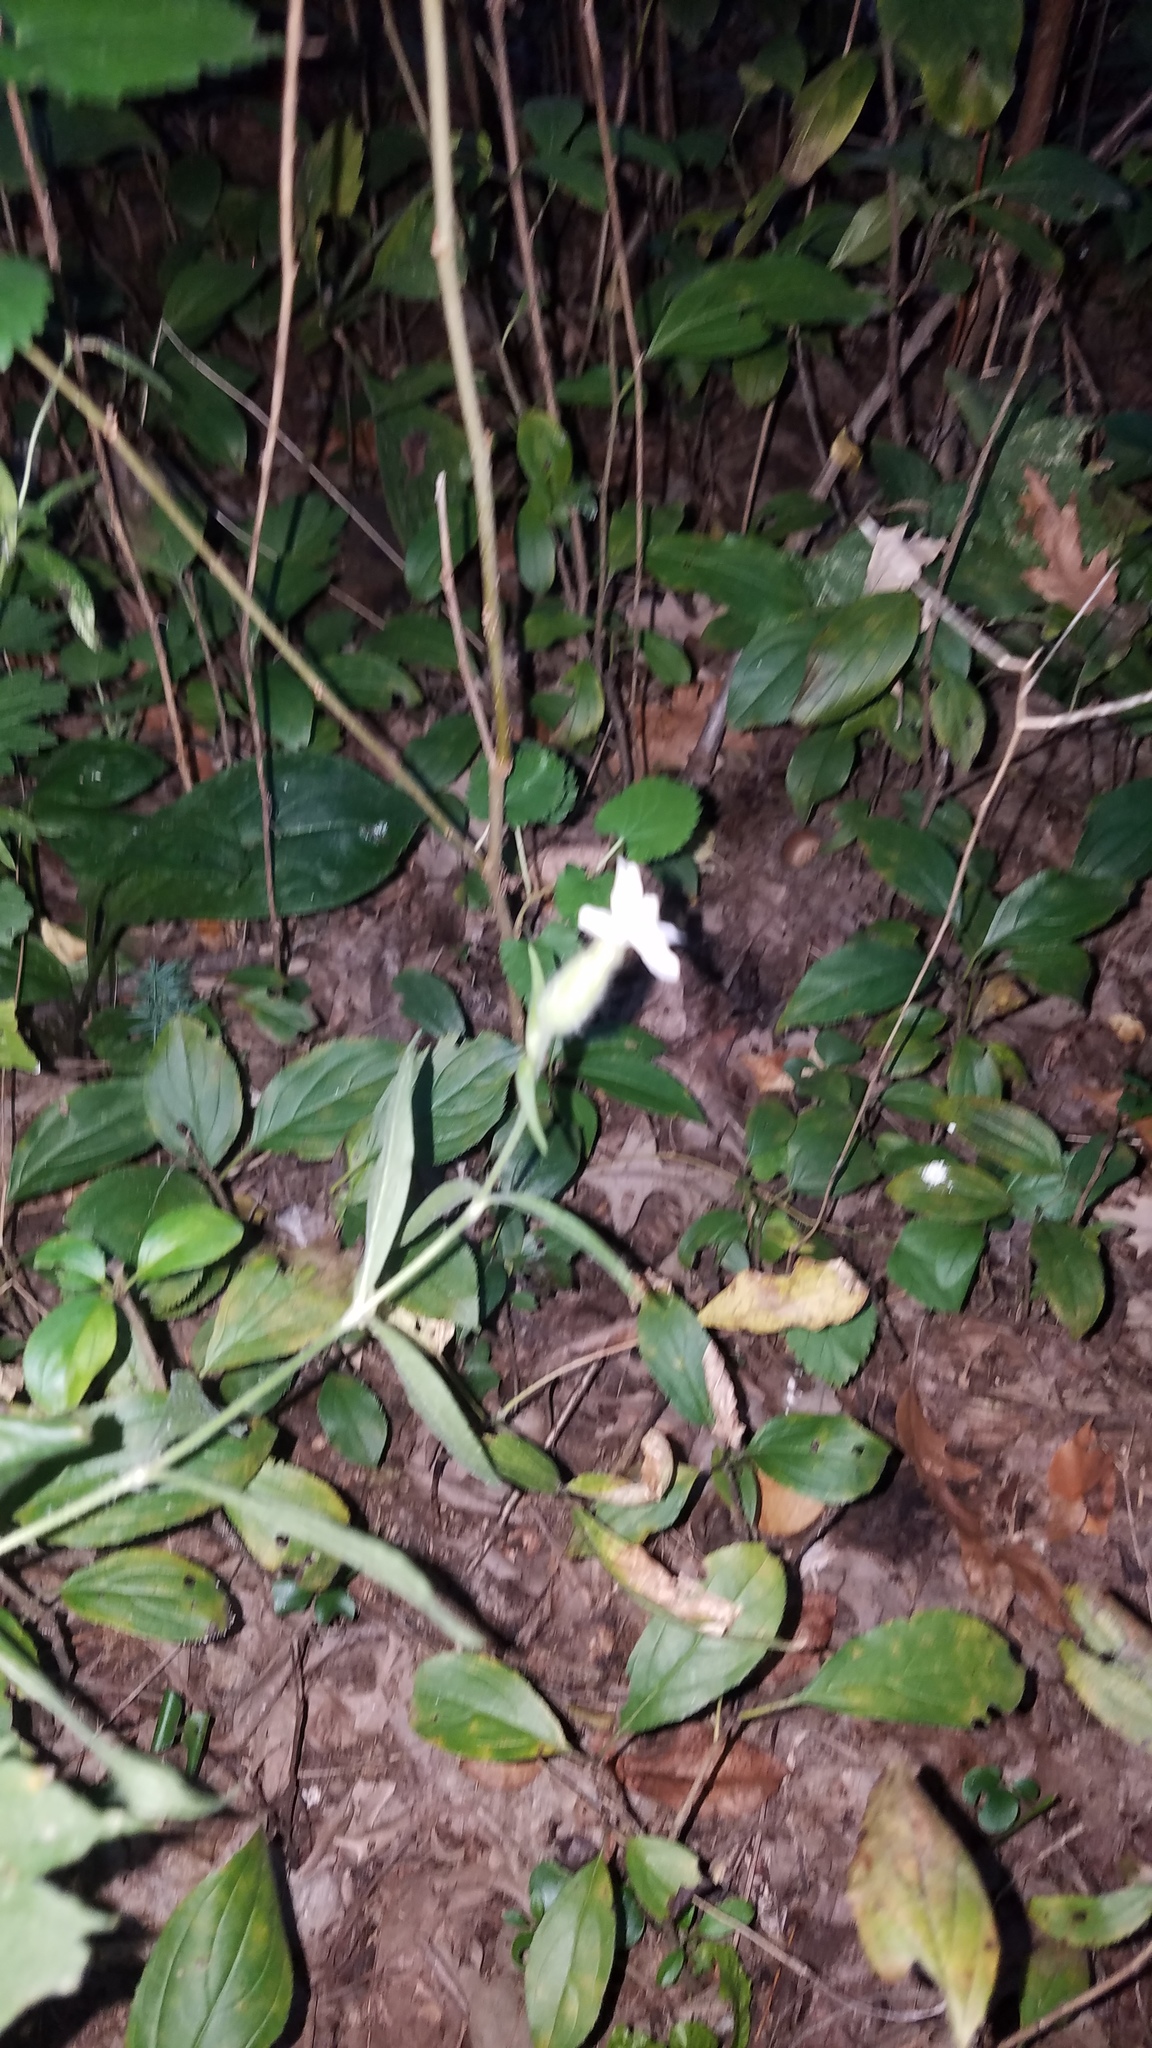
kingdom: Plantae
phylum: Tracheophyta
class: Magnoliopsida
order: Caryophyllales
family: Caryophyllaceae
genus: Silene
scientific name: Silene latifolia
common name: White campion
